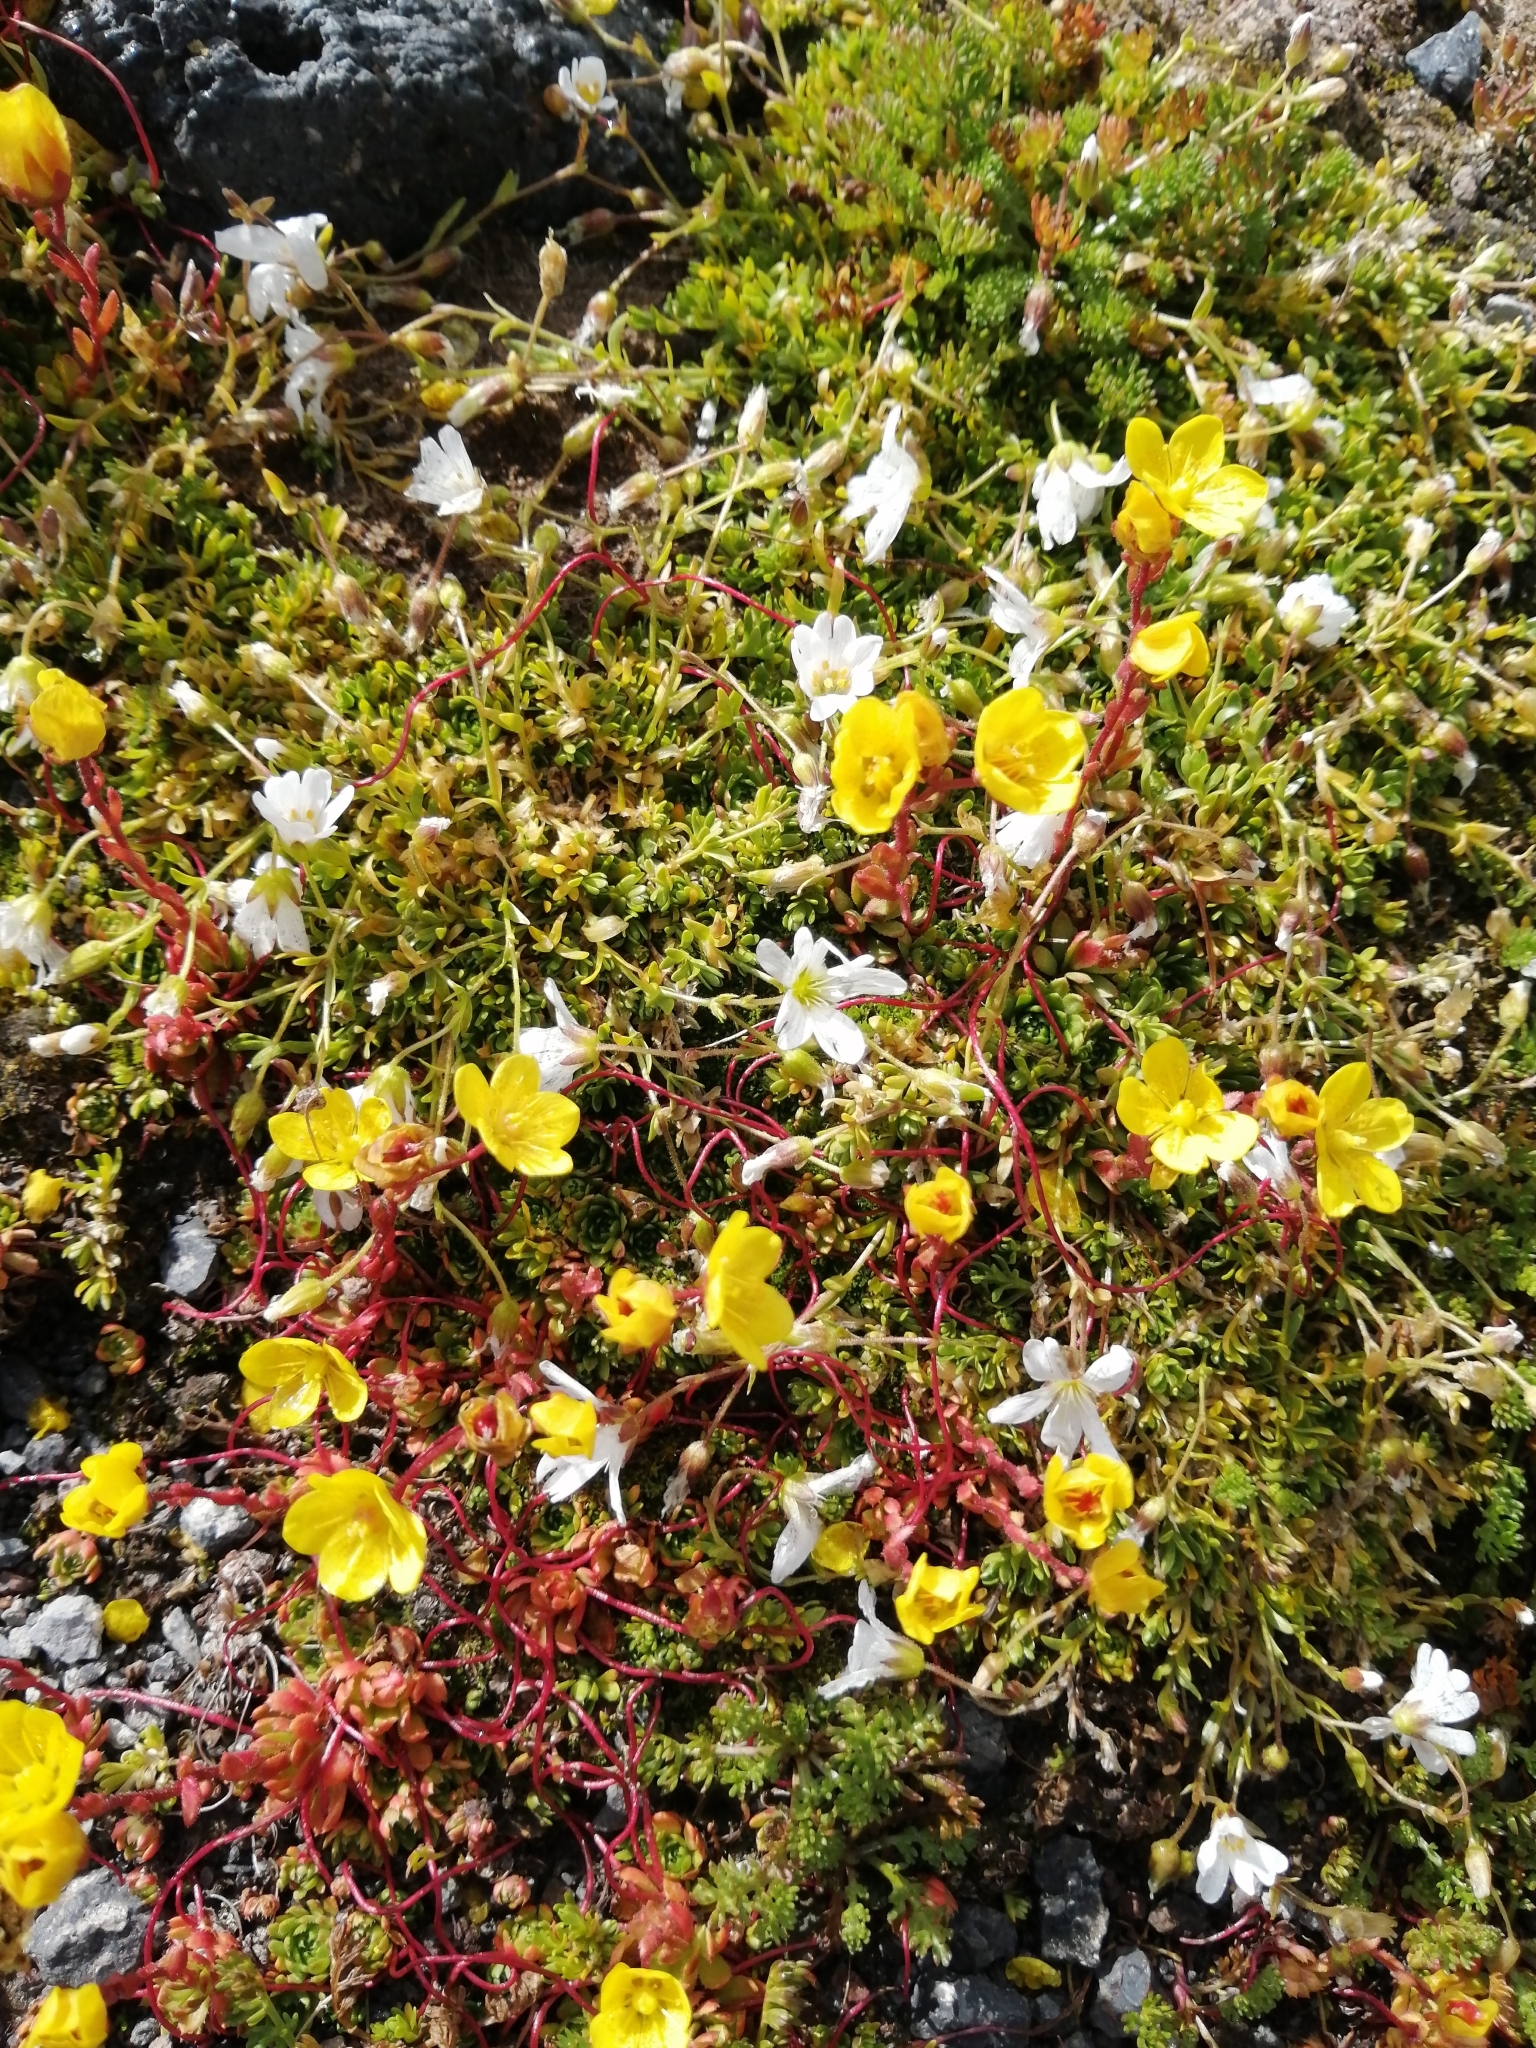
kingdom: Plantae
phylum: Tracheophyta
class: Magnoliopsida
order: Saxifragales
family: Saxifragaceae
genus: Saxifraga
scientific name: Saxifraga flagellaris
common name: Spider saxifrage
